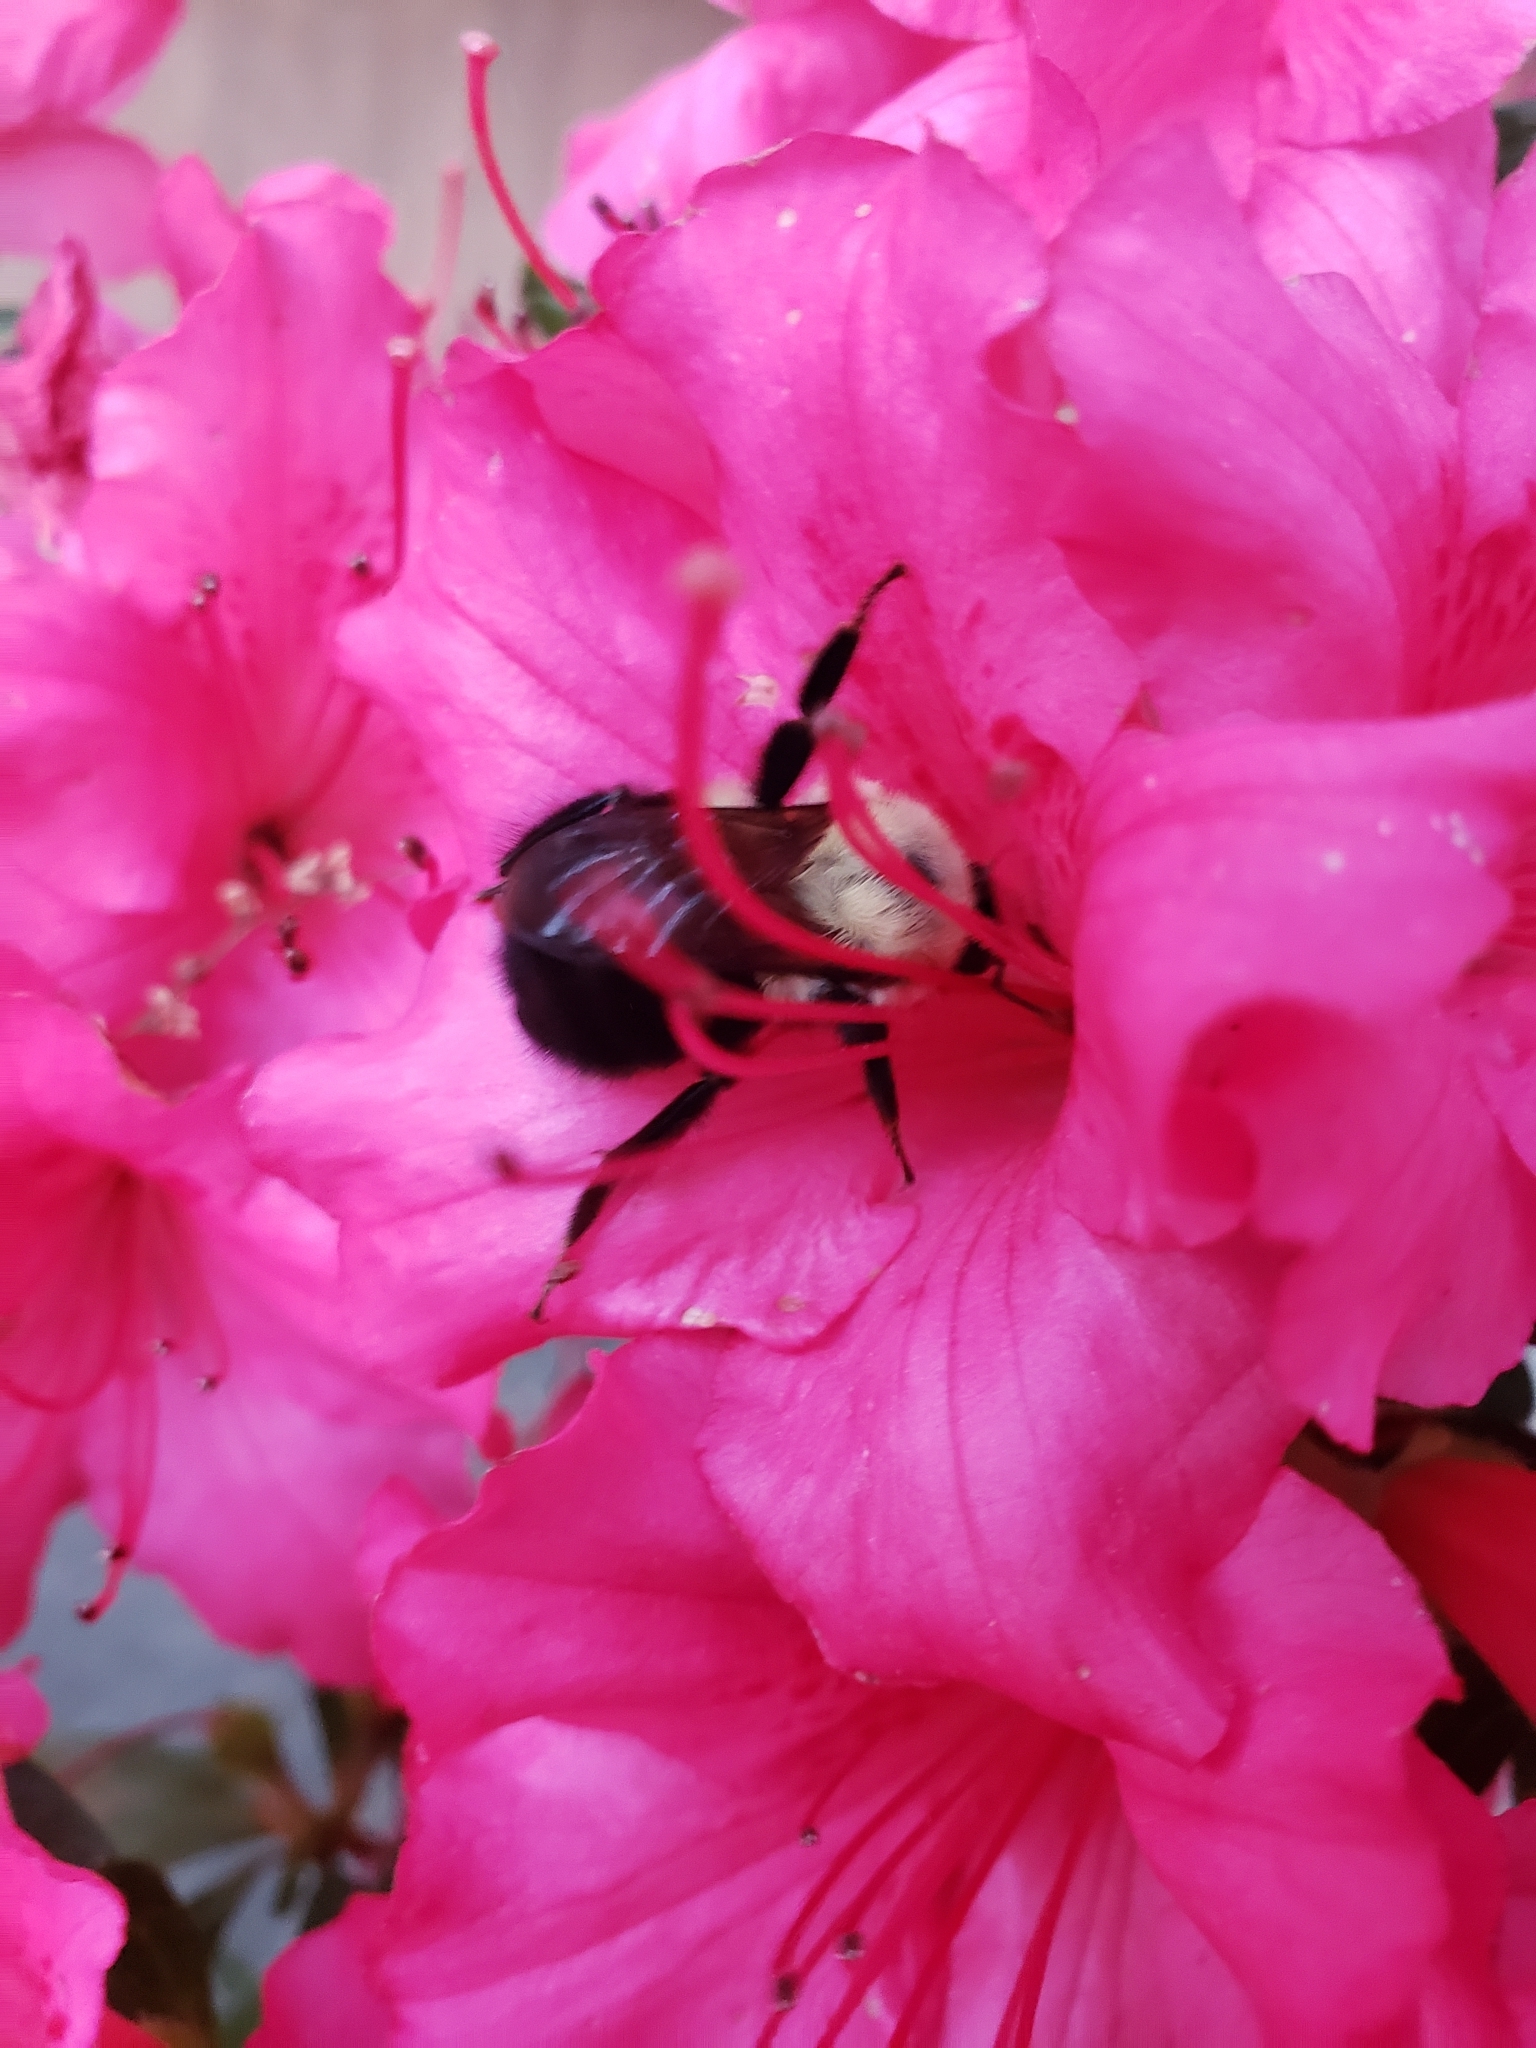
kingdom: Animalia
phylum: Arthropoda
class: Insecta
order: Hymenoptera
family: Apidae
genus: Bombus
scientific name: Bombus bimaculatus
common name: Two-spotted bumble bee
